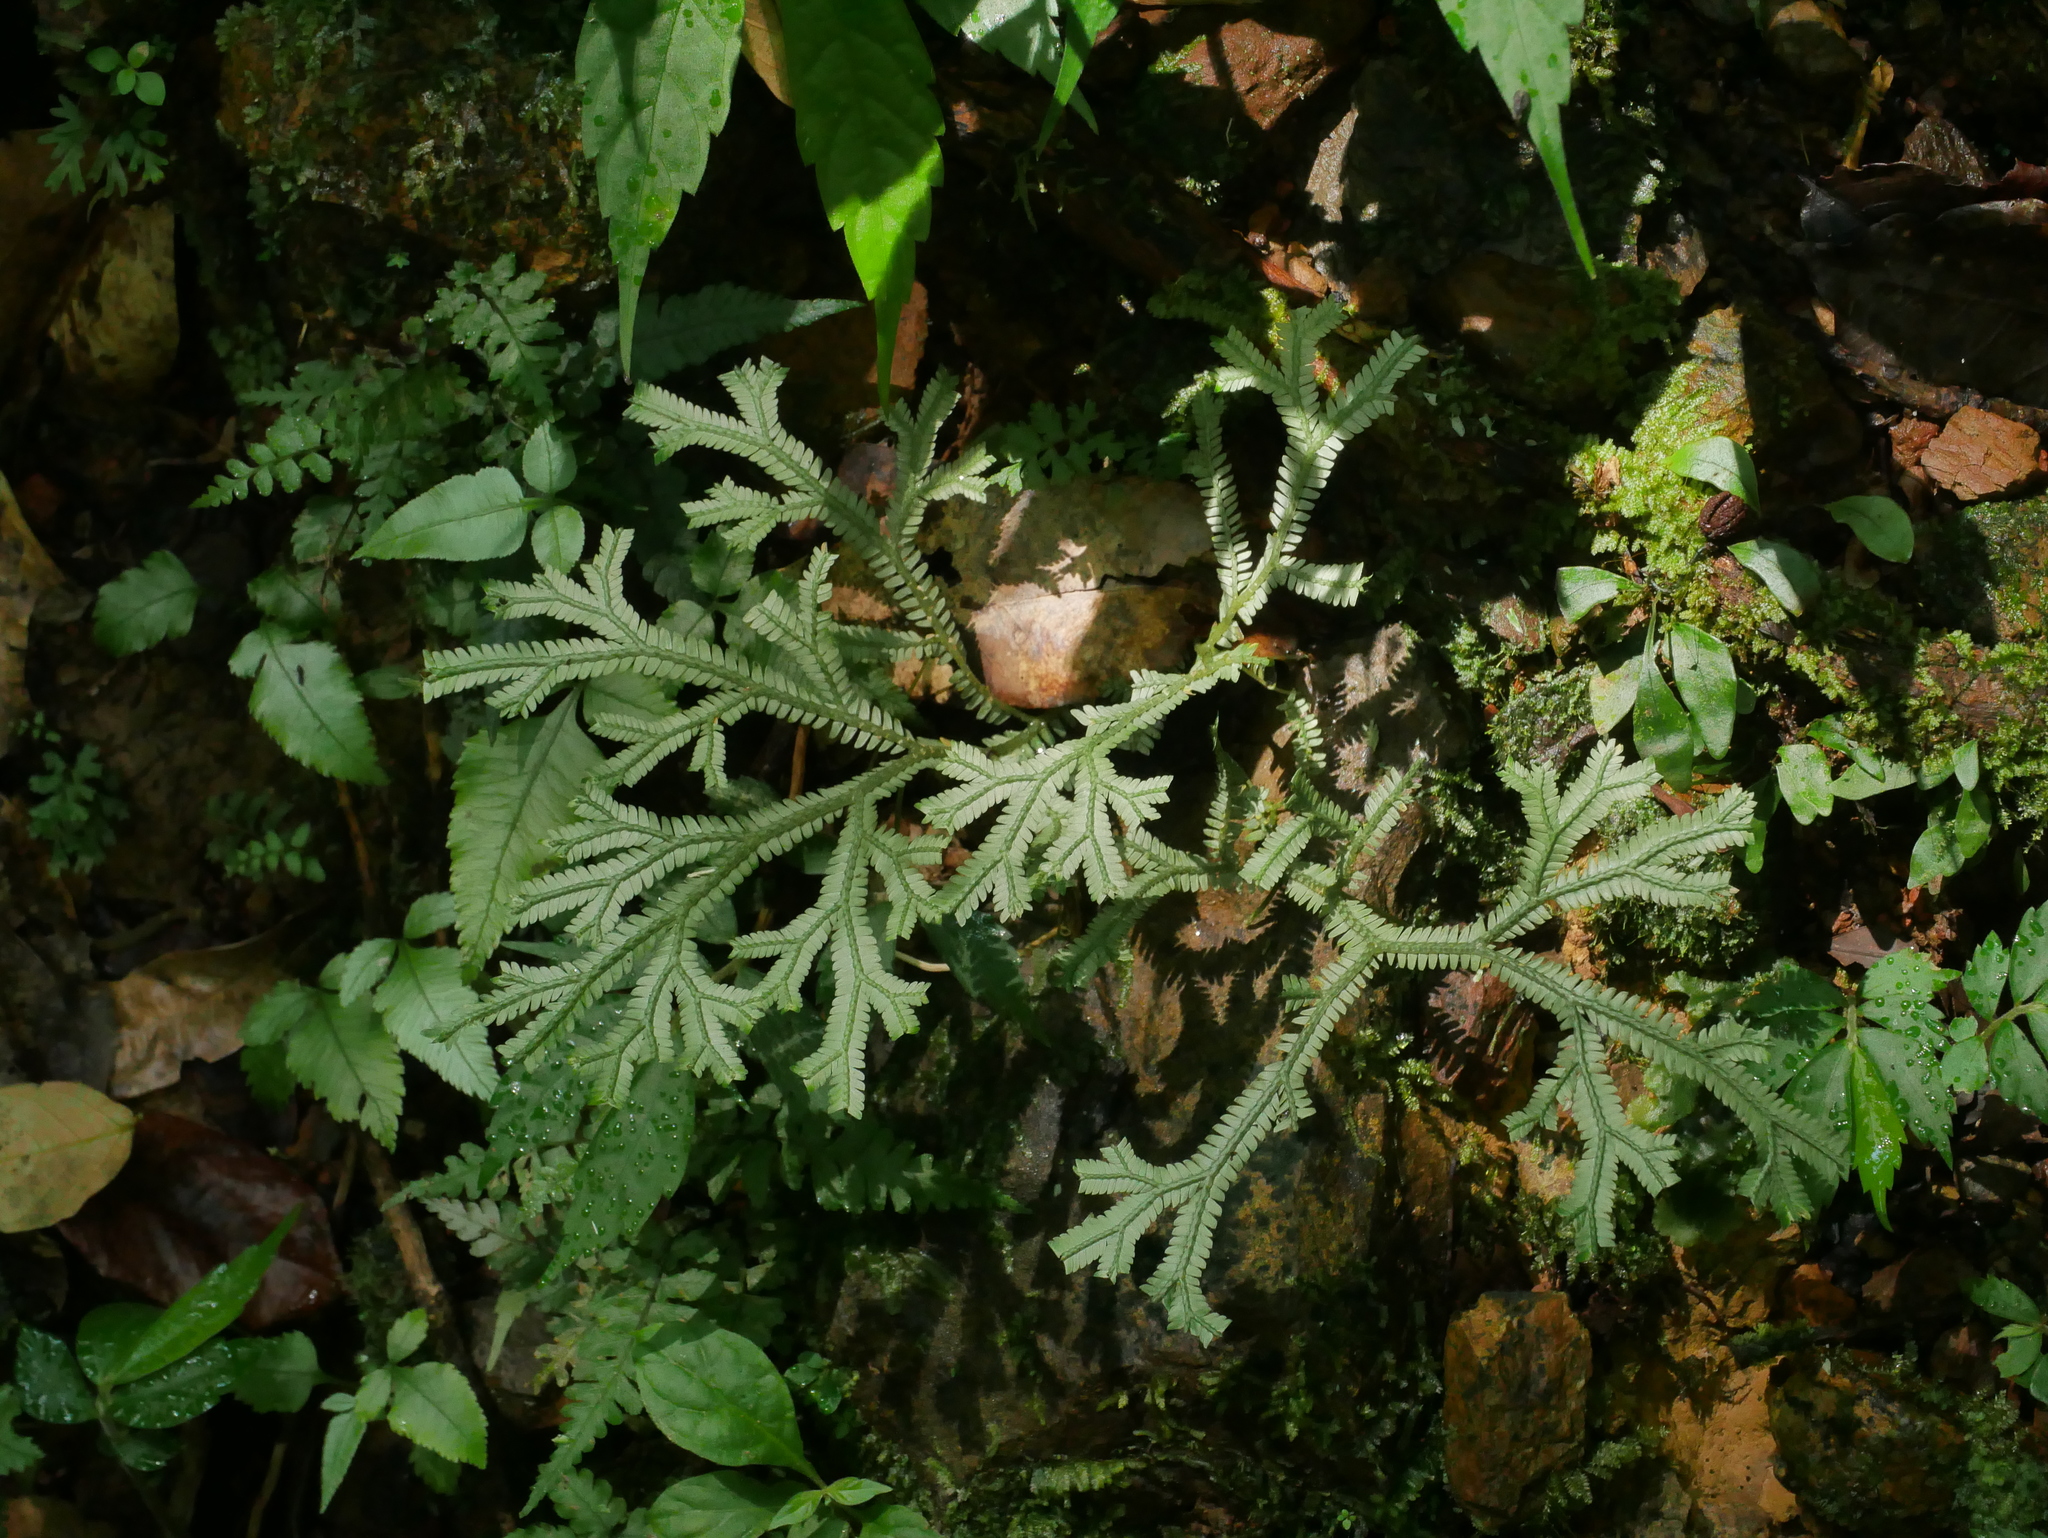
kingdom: Plantae
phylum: Tracheophyta
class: Lycopodiopsida
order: Selaginellales
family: Selaginellaceae
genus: Selaginella
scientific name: Selaginella doederleinii
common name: Greater selaginella
